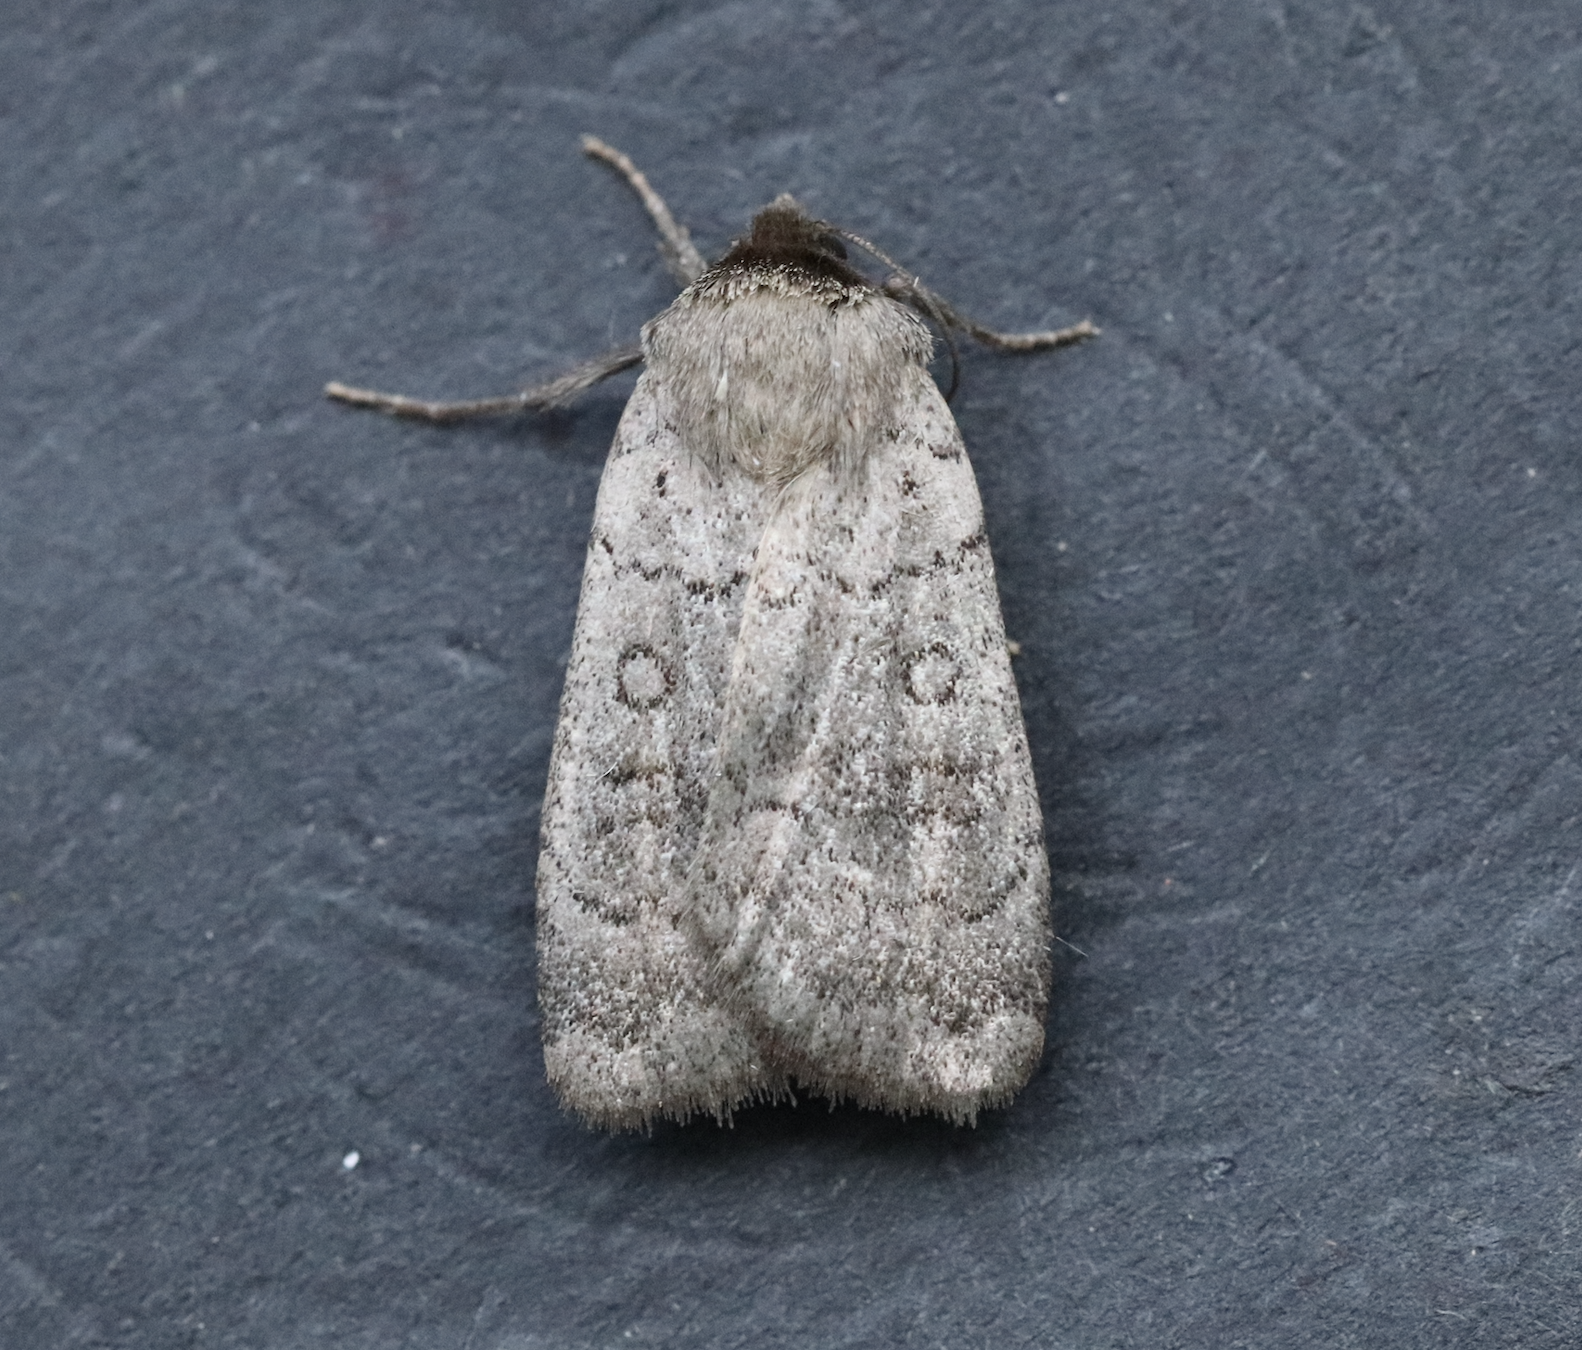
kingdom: Animalia
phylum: Arthropoda
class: Insecta
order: Lepidoptera
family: Noctuidae
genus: Protolampra
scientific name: Protolampra rufipectus
